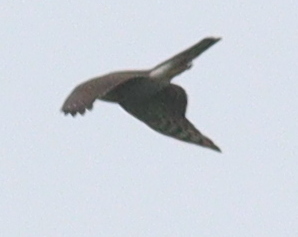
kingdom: Animalia
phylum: Chordata
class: Aves
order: Accipitriformes
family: Accipitridae
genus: Accipiter
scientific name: Accipiter nisus
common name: Eurasian sparrowhawk
